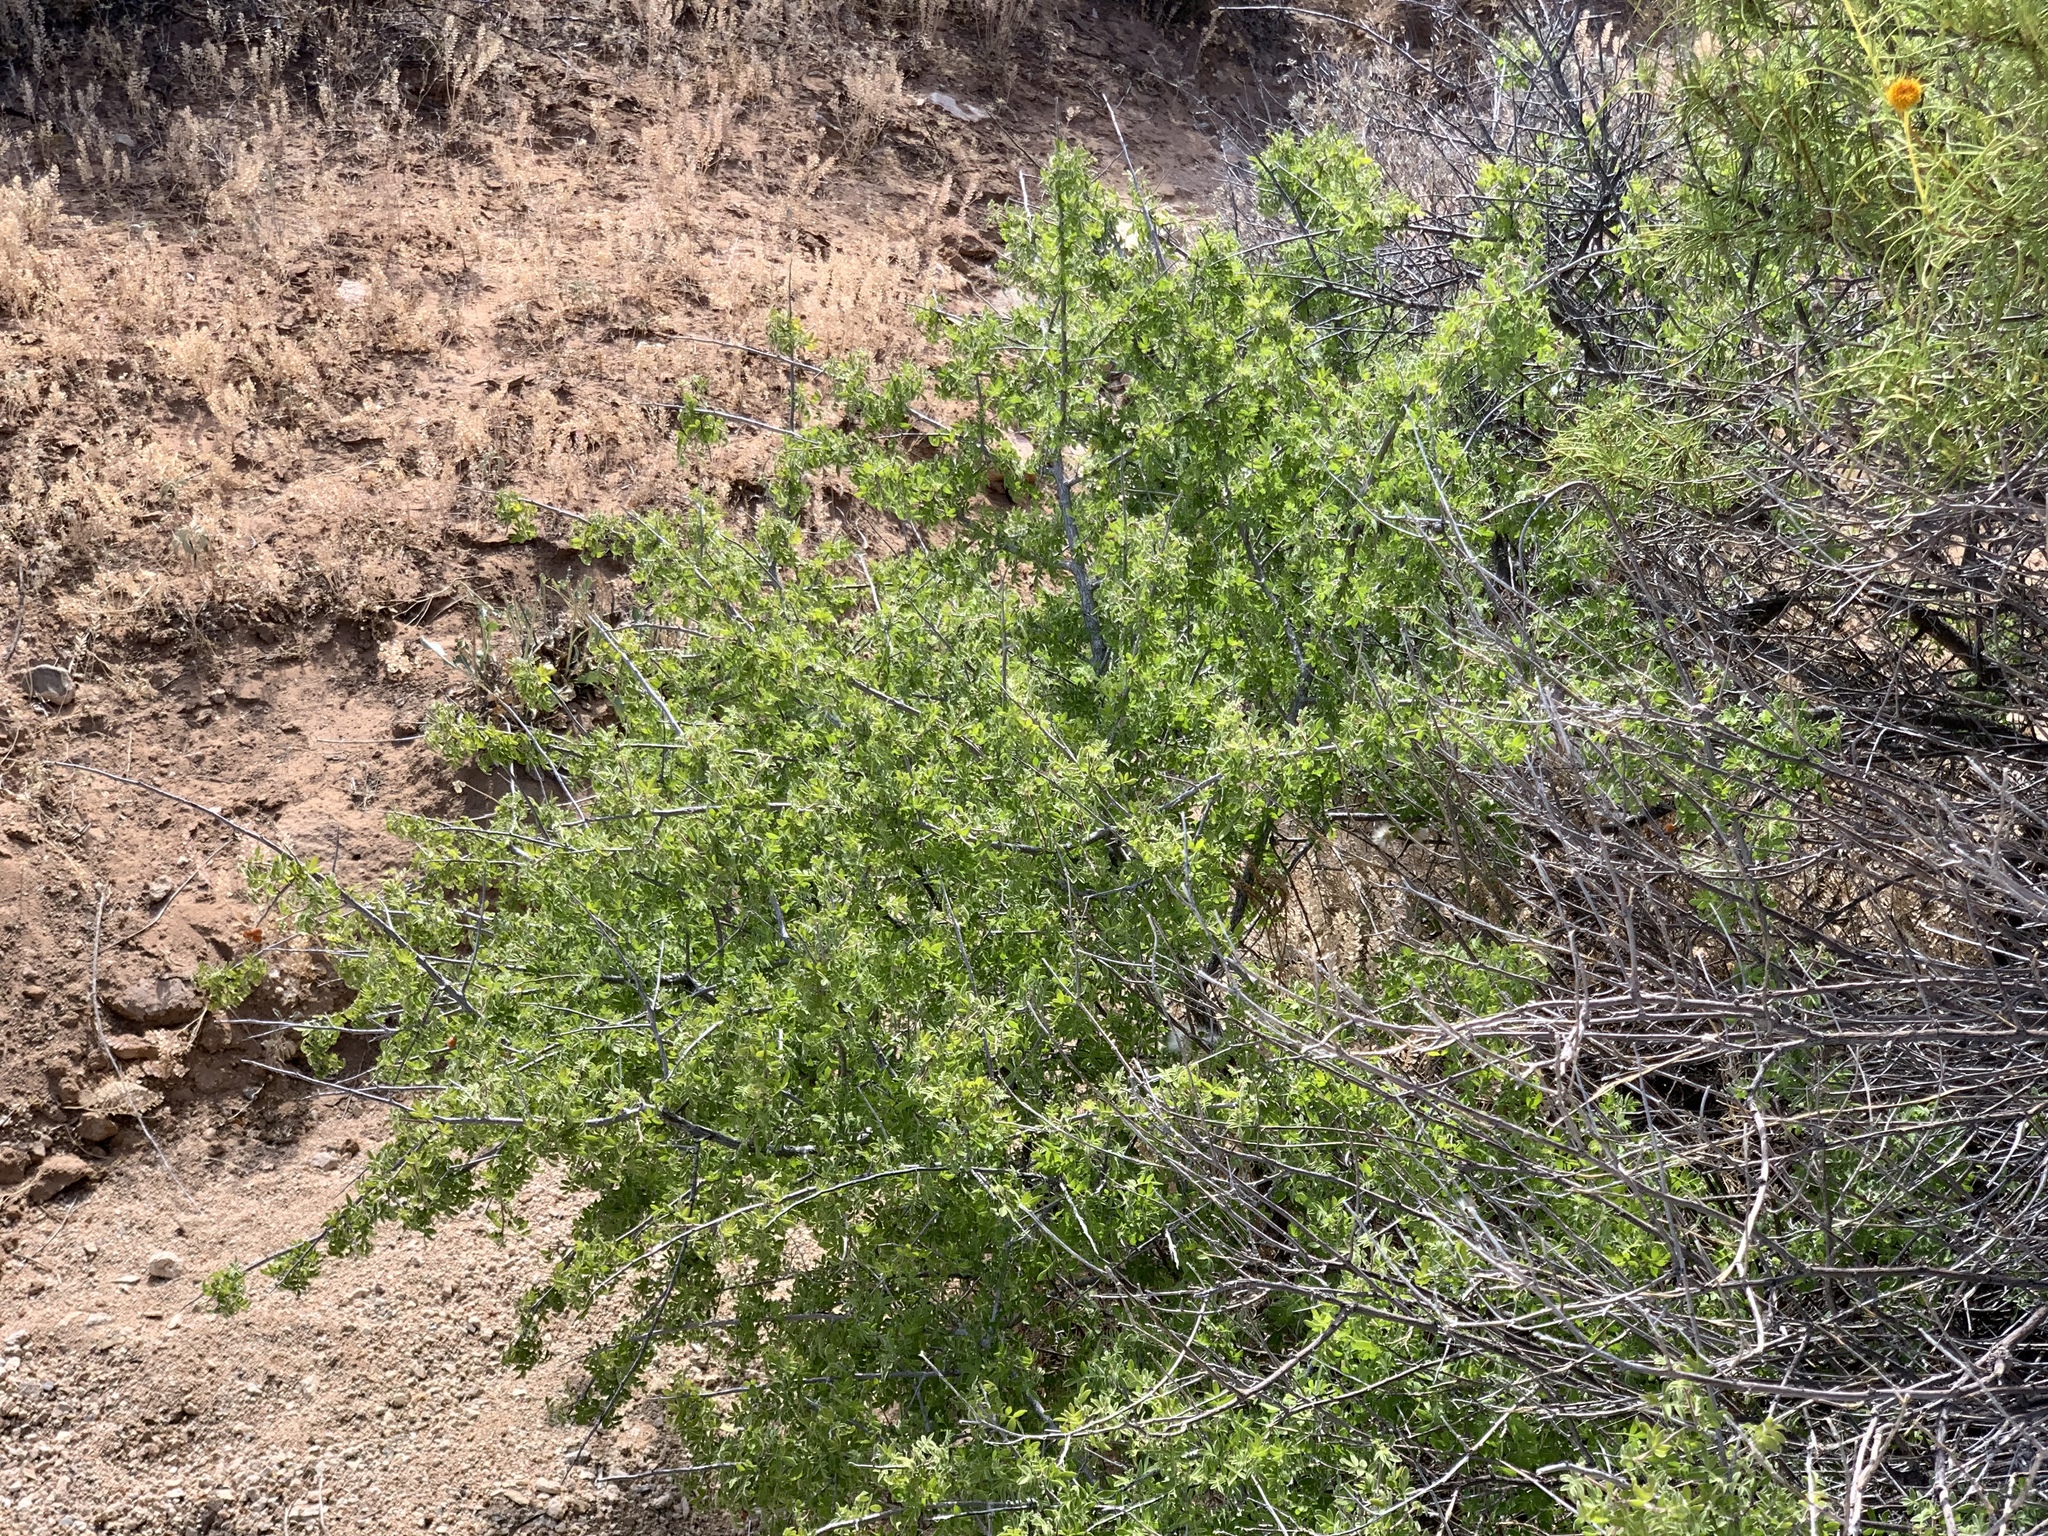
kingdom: Plantae
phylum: Tracheophyta
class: Magnoliopsida
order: Sapindales
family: Anacardiaceae
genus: Rhus
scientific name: Rhus microphylla
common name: Desert sumac
